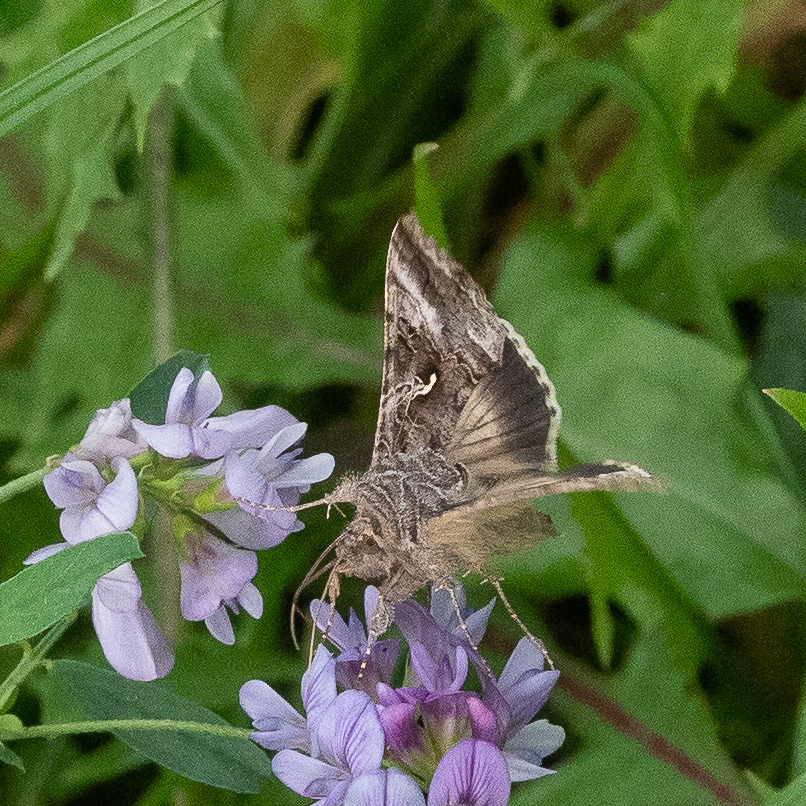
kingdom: Animalia
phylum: Arthropoda
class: Insecta
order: Lepidoptera
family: Noctuidae
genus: Autographa
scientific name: Autographa gamma
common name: Silver y
